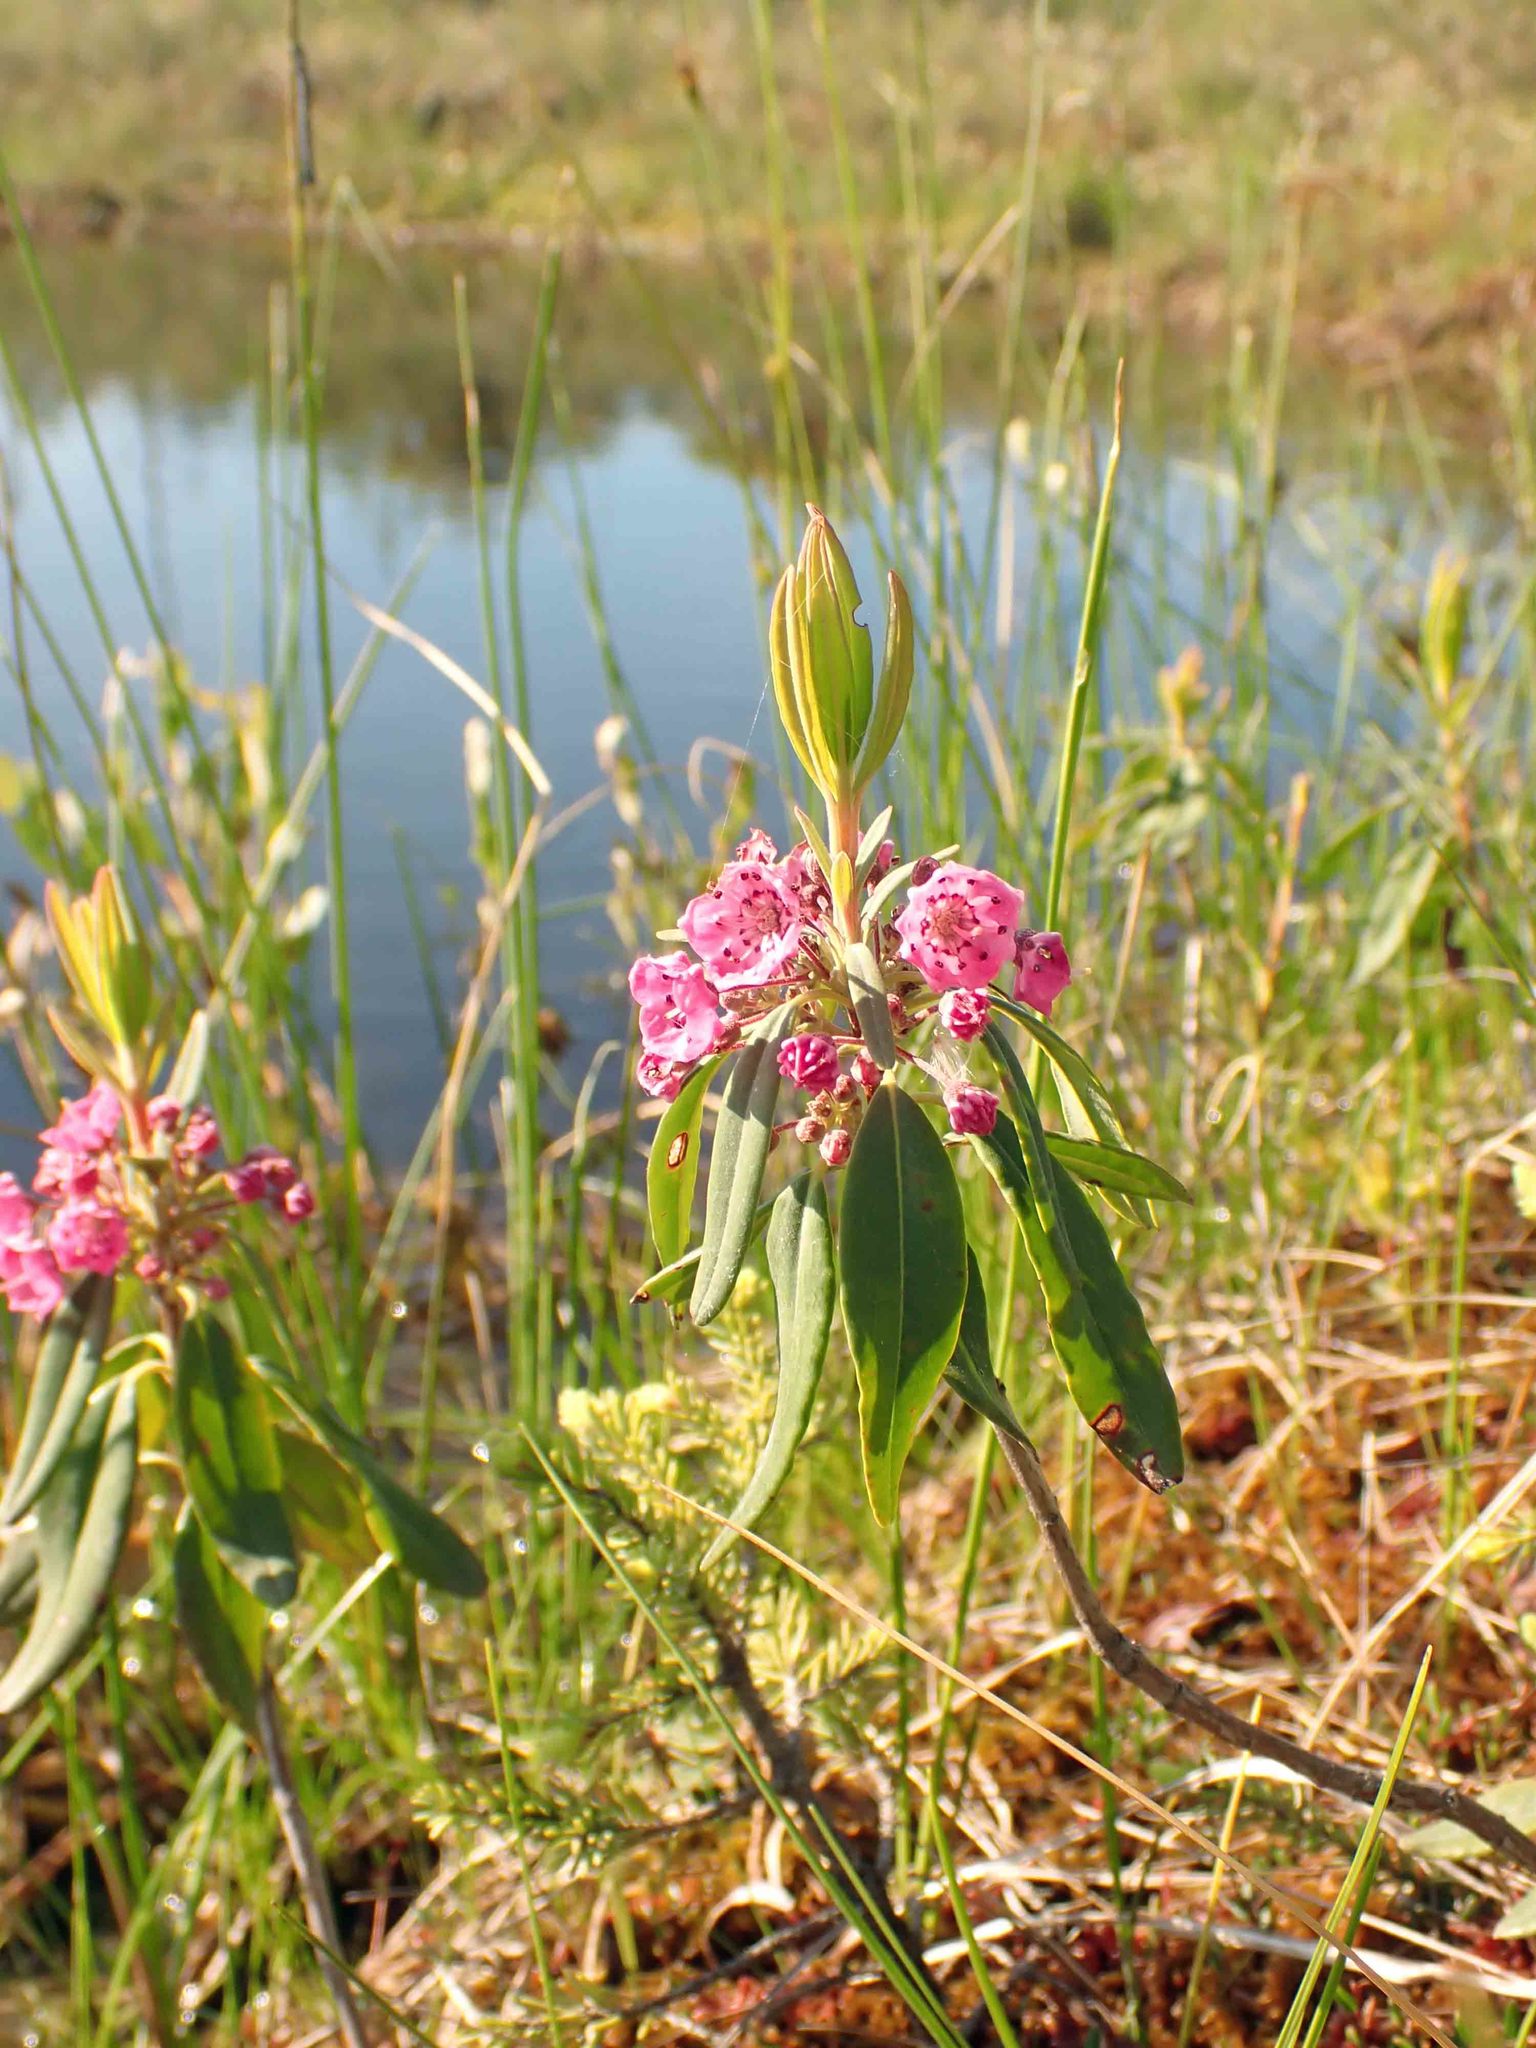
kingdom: Plantae
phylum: Tracheophyta
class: Magnoliopsida
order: Ericales
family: Ericaceae
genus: Kalmia
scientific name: Kalmia angustifolia
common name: Sheep-laurel
